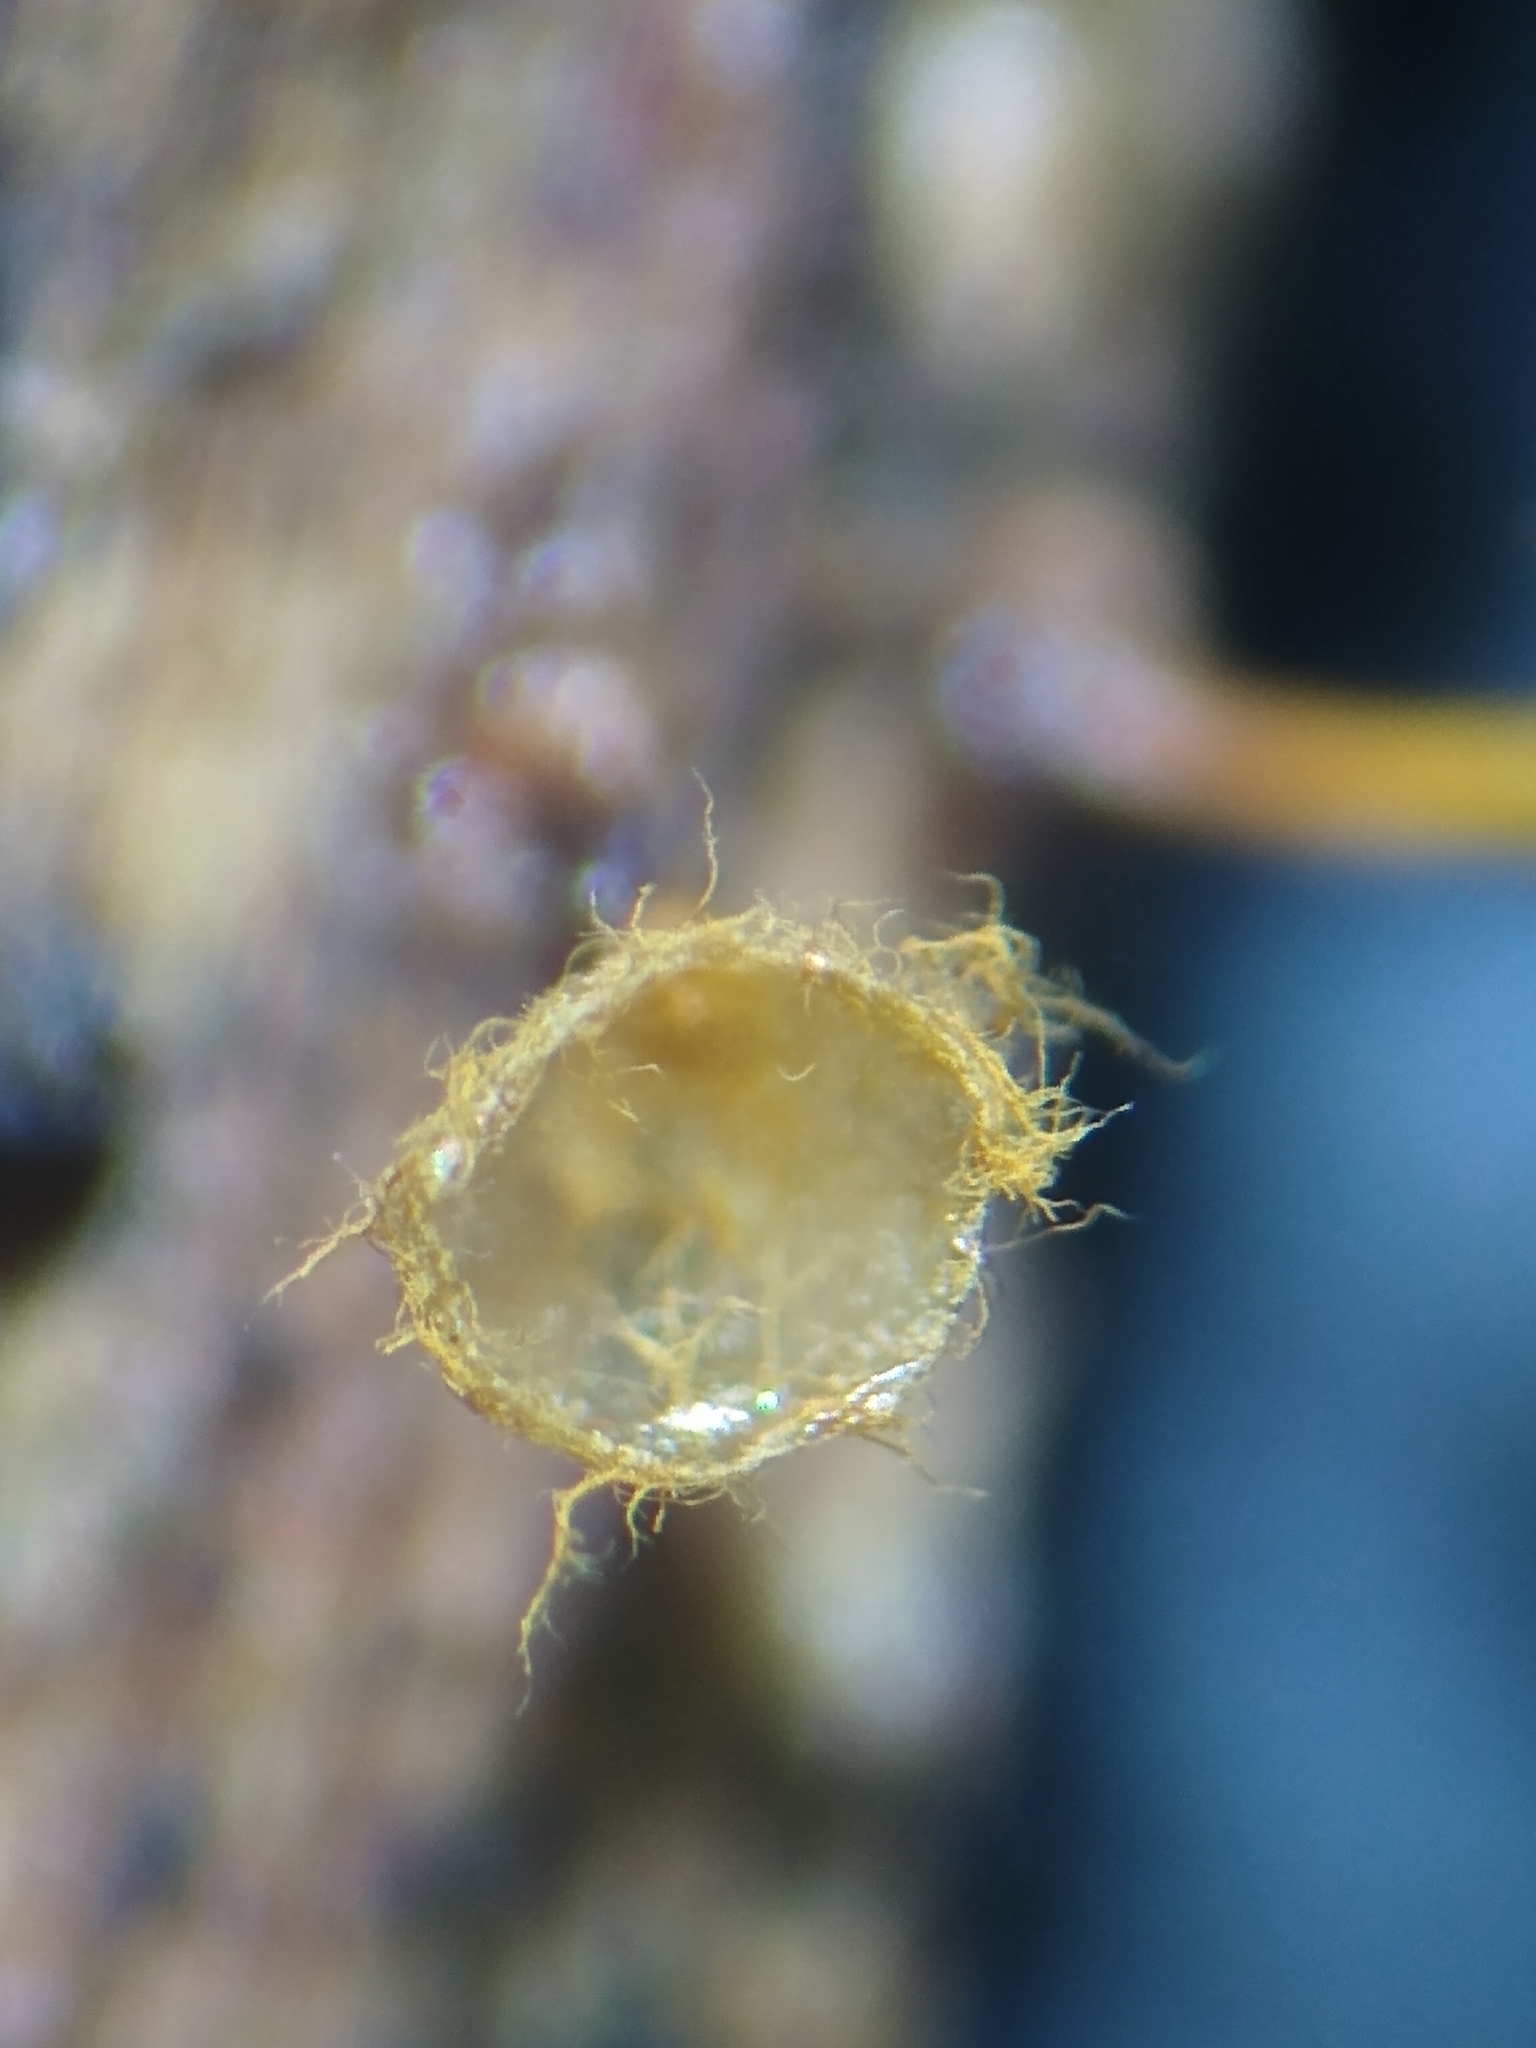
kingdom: Protozoa
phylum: Mycetozoa
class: Myxomycetes
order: Trichiales
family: Trichiaceae
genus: Trichia
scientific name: Trichia crateriformis
